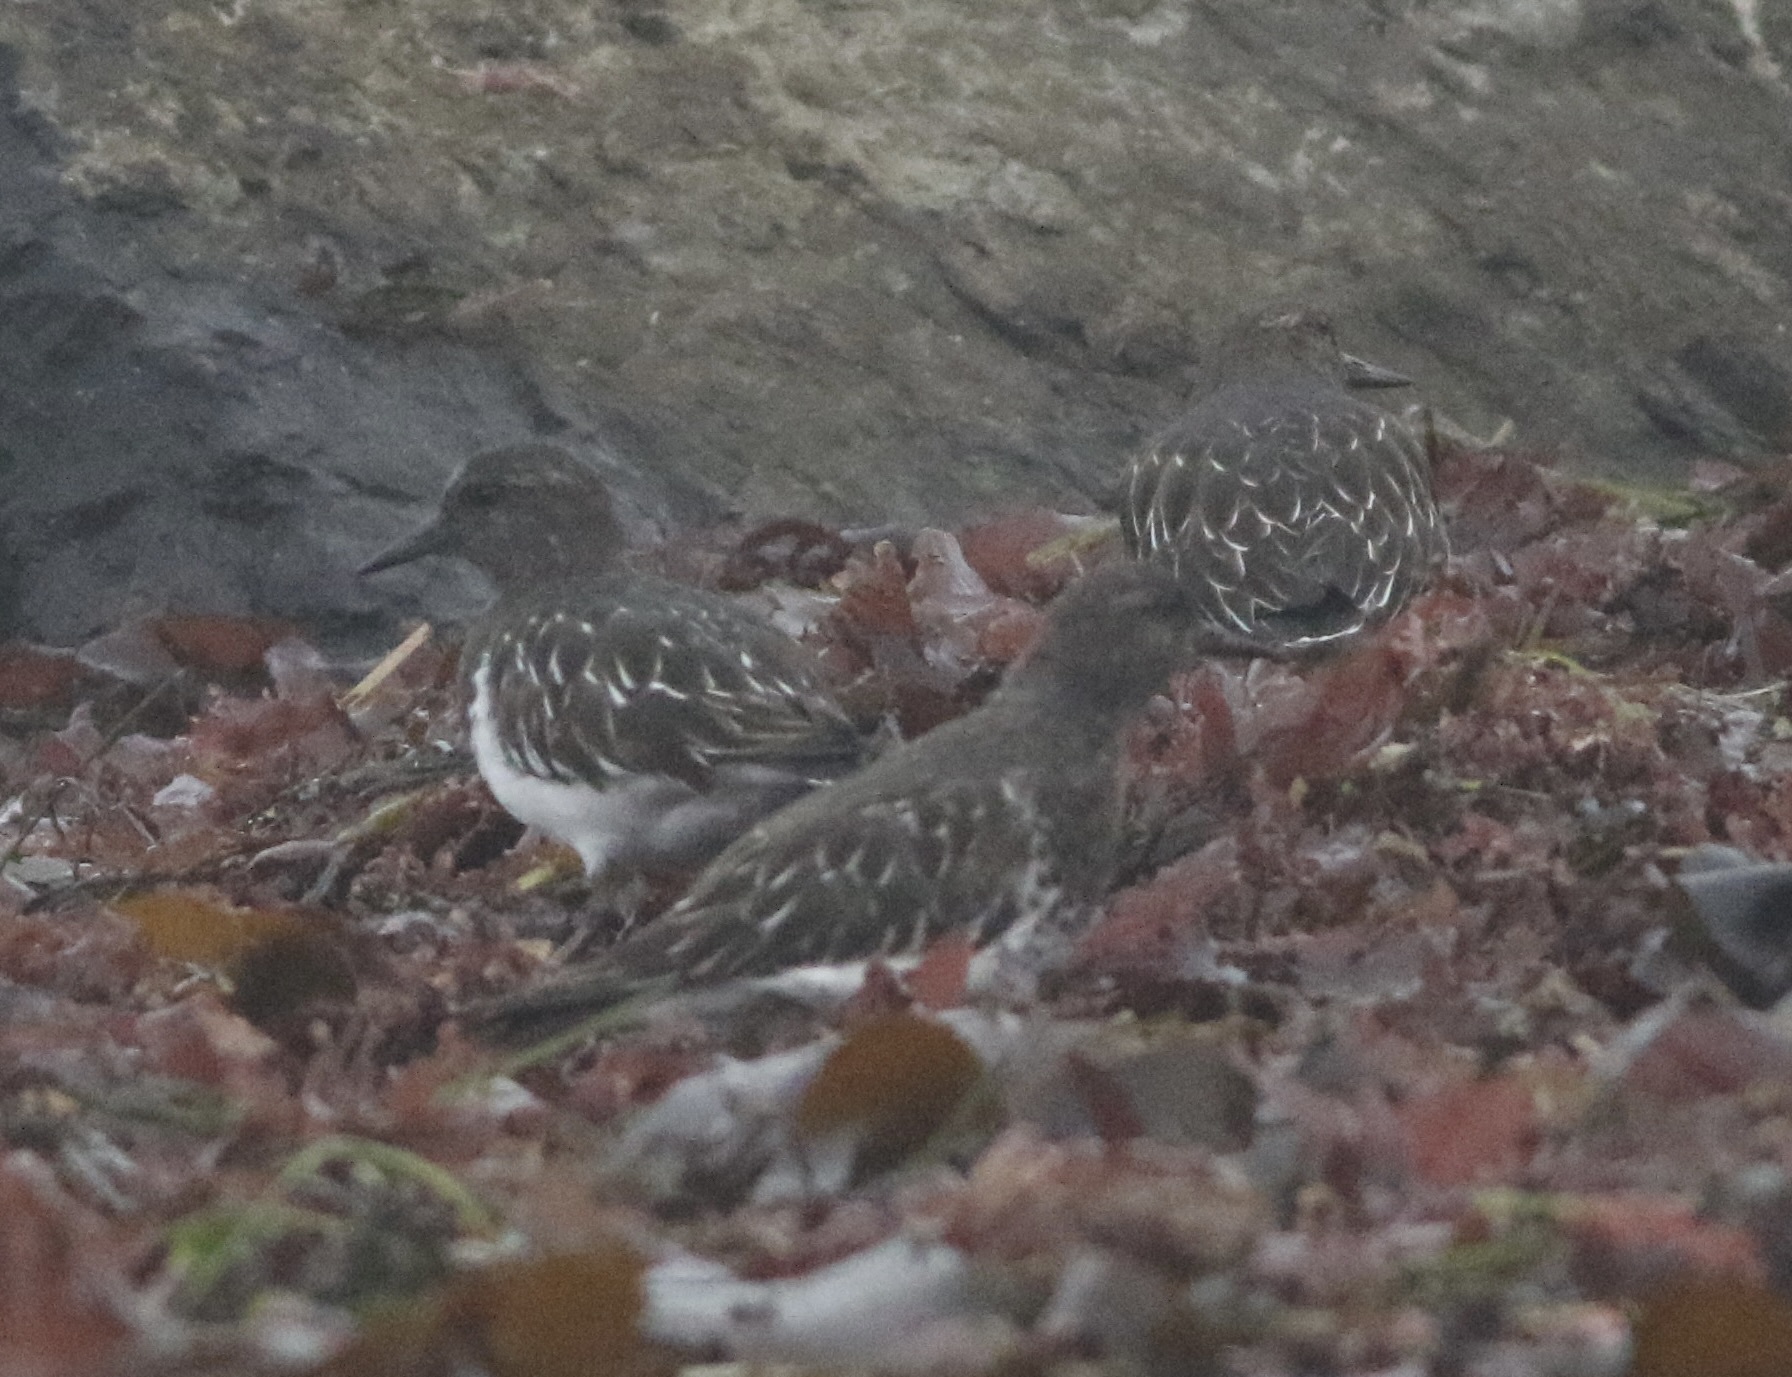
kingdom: Animalia
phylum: Chordata
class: Aves
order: Charadriiformes
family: Scolopacidae
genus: Arenaria
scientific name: Arenaria melanocephala
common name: Black turnstone
